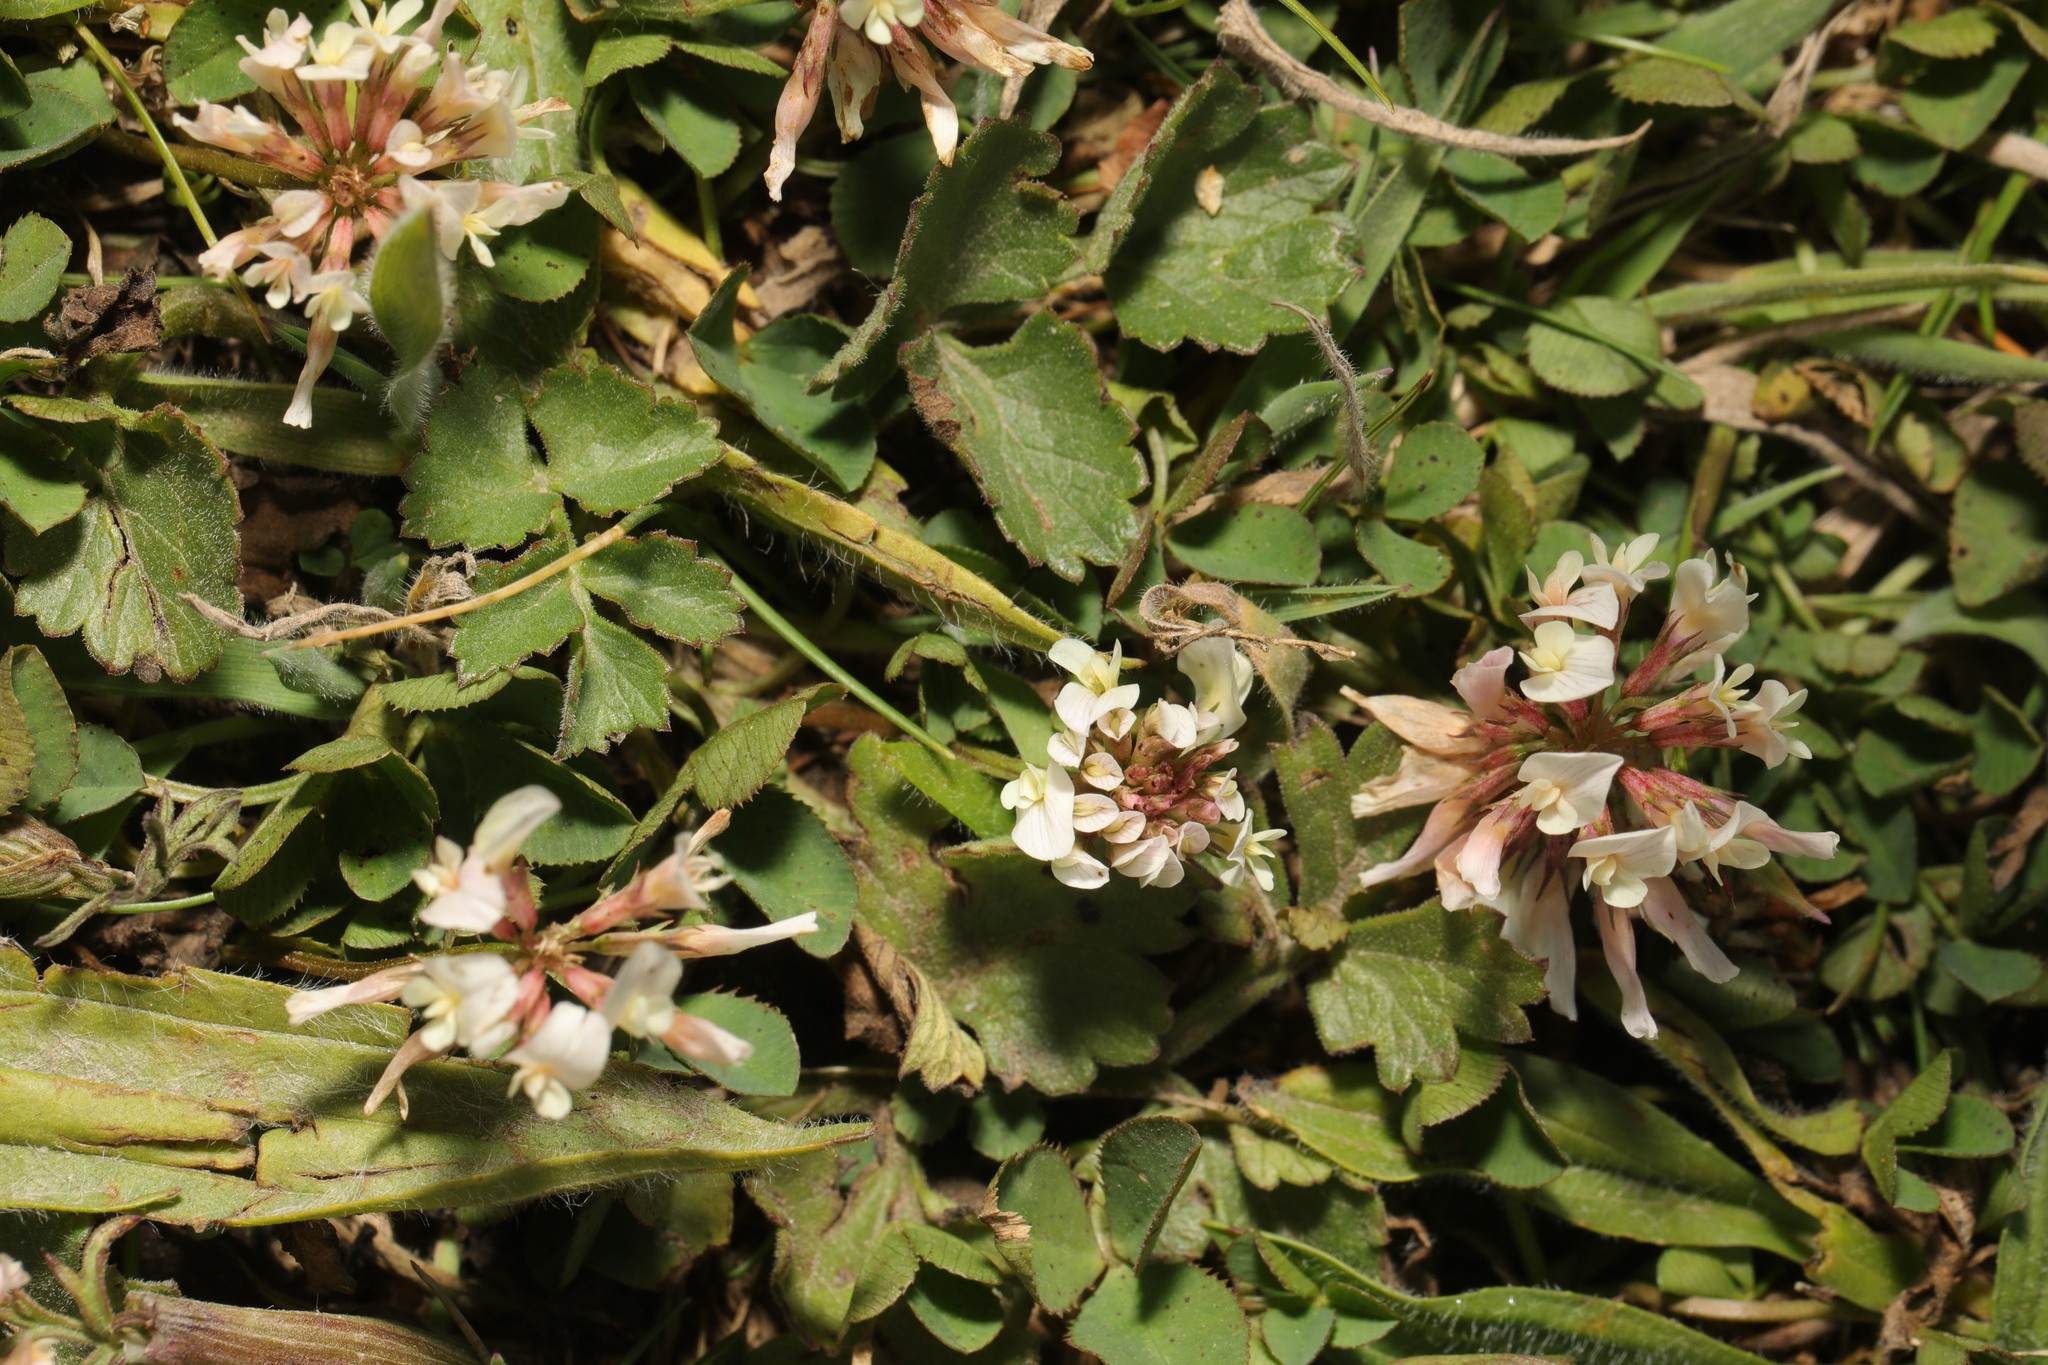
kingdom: Plantae
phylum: Tracheophyta
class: Magnoliopsida
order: Fabales
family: Fabaceae
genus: Trifolium
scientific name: Trifolium repens
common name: White clover
